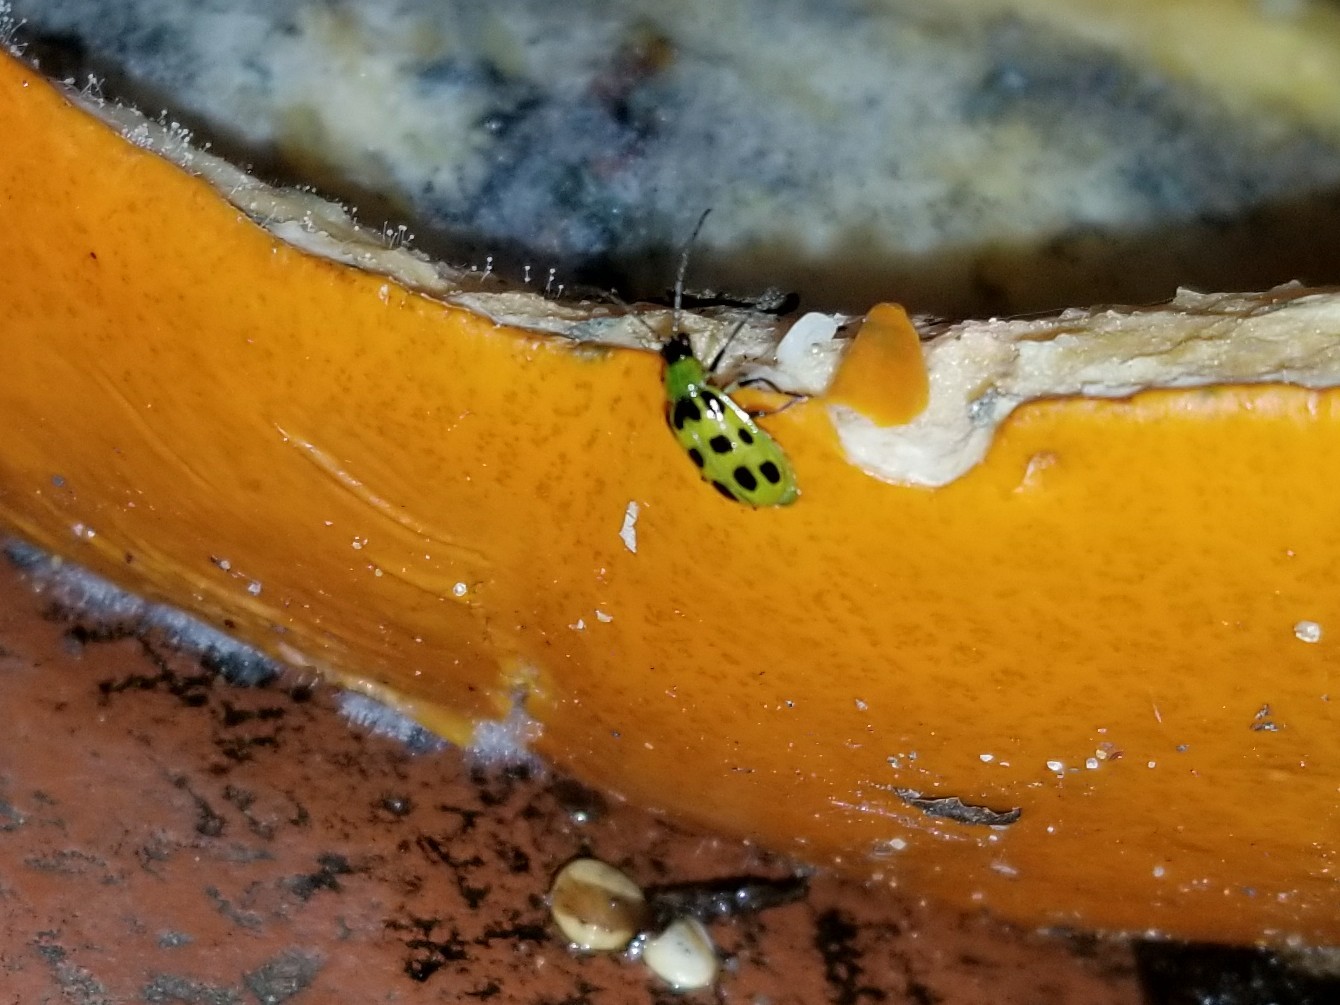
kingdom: Animalia
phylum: Arthropoda
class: Insecta
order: Coleoptera
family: Chrysomelidae
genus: Diabrotica
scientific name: Diabrotica undecimpunctata
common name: Spotted cucumber beetle
